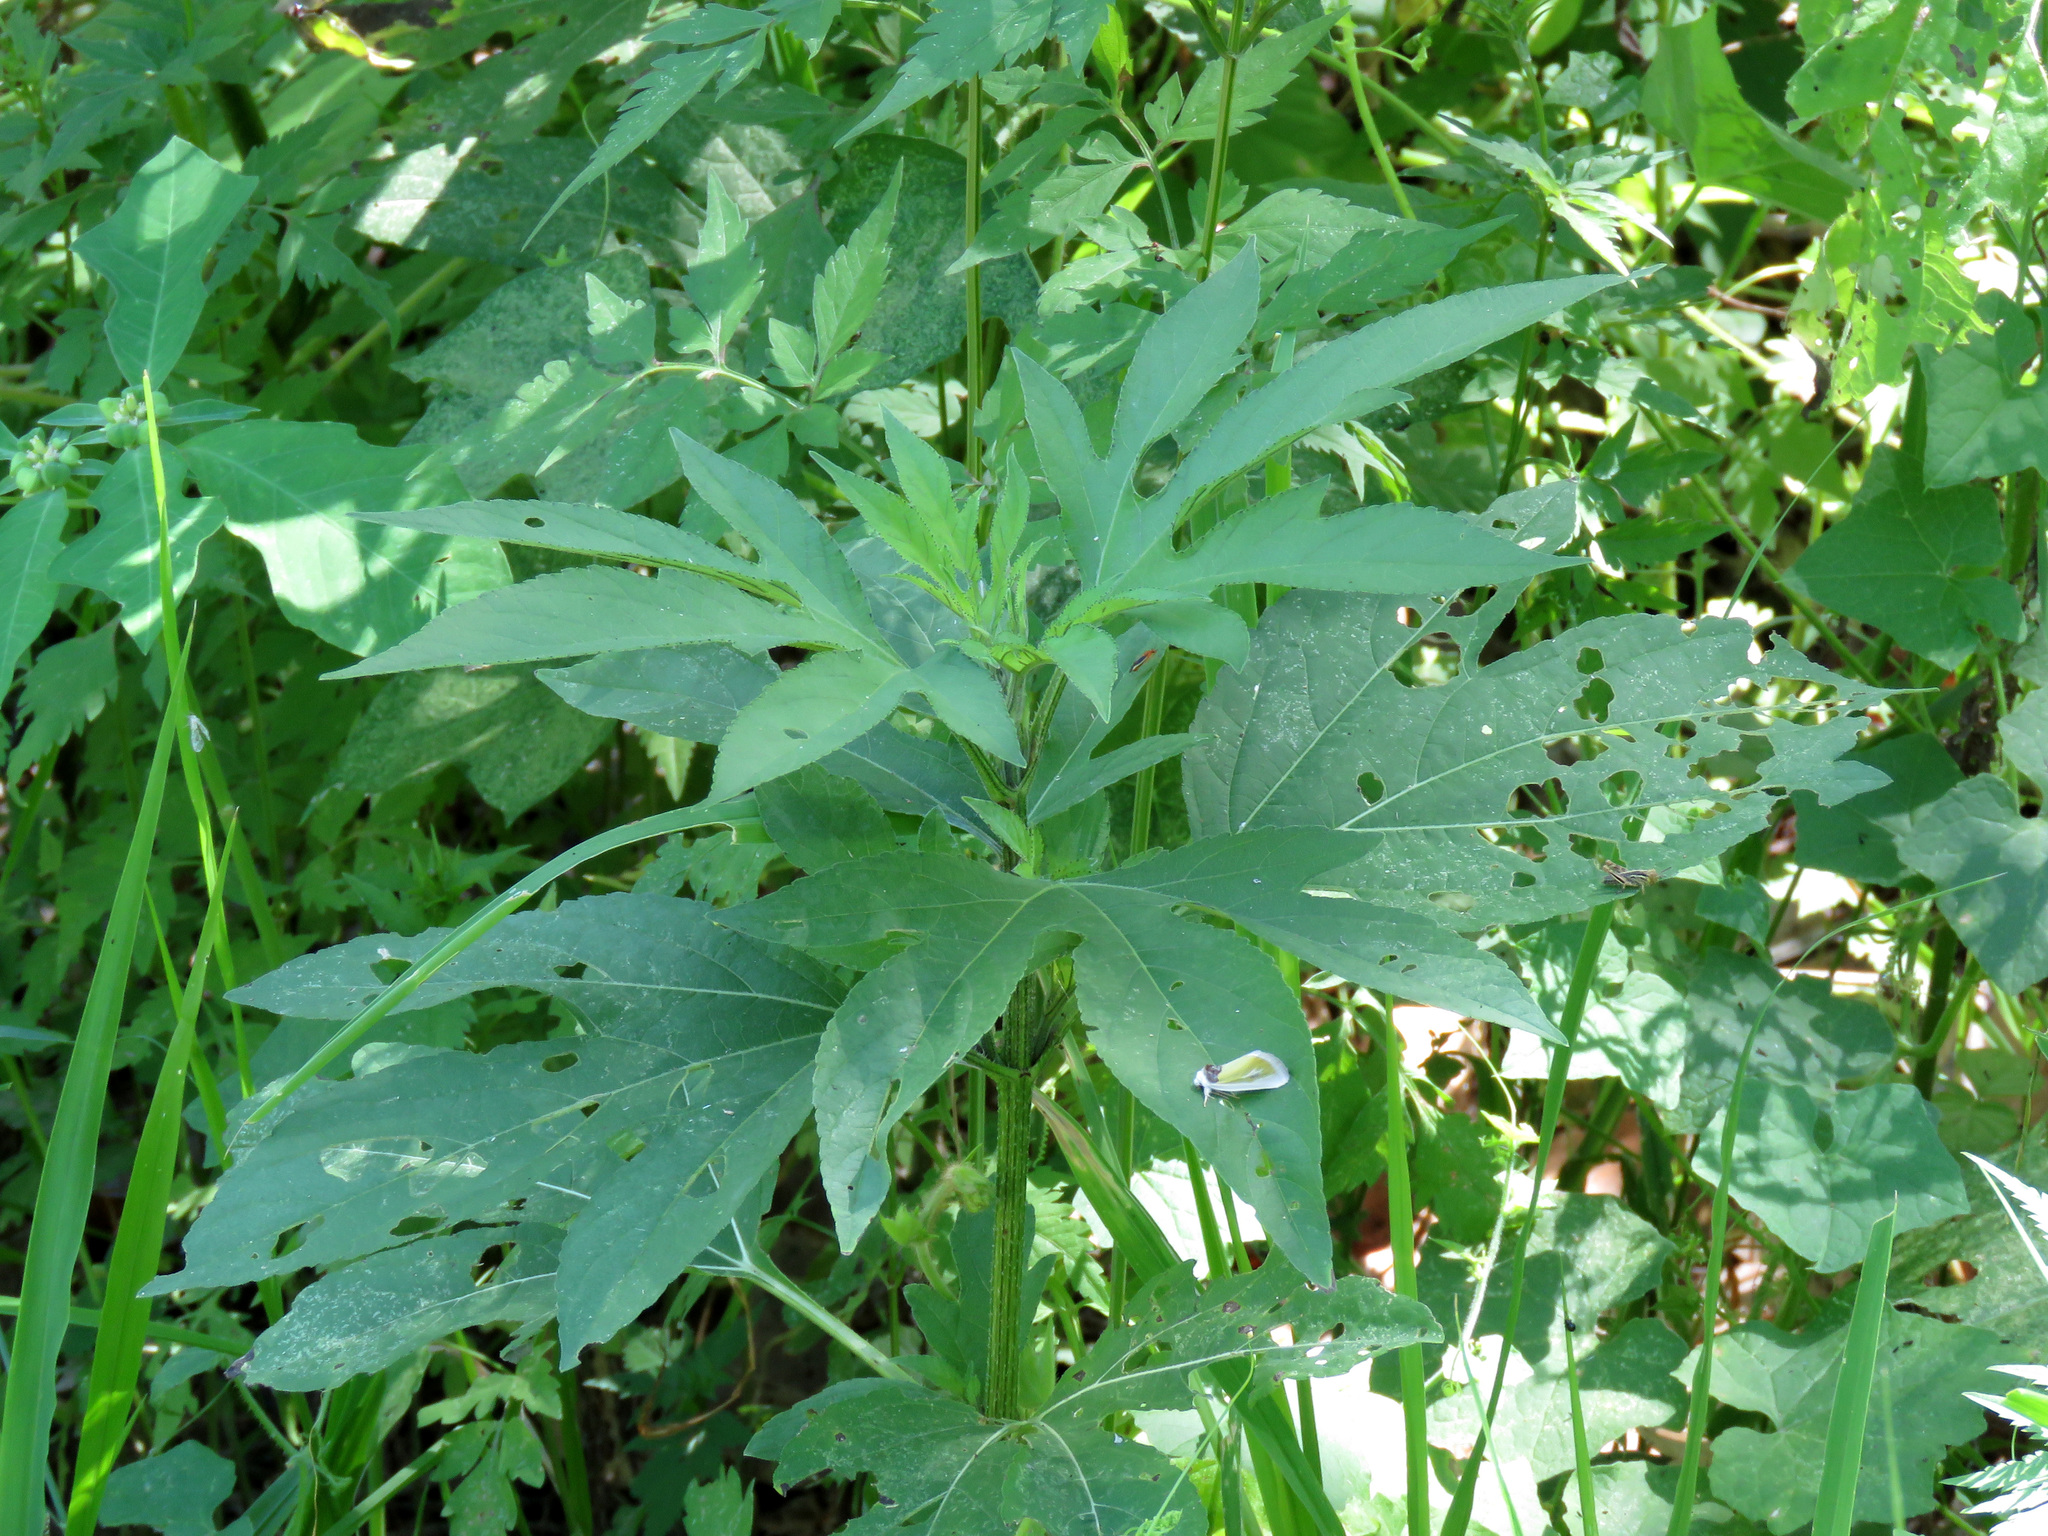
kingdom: Plantae
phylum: Tracheophyta
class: Magnoliopsida
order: Asterales
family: Asteraceae
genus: Ambrosia
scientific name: Ambrosia trifida
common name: Giant ragweed
